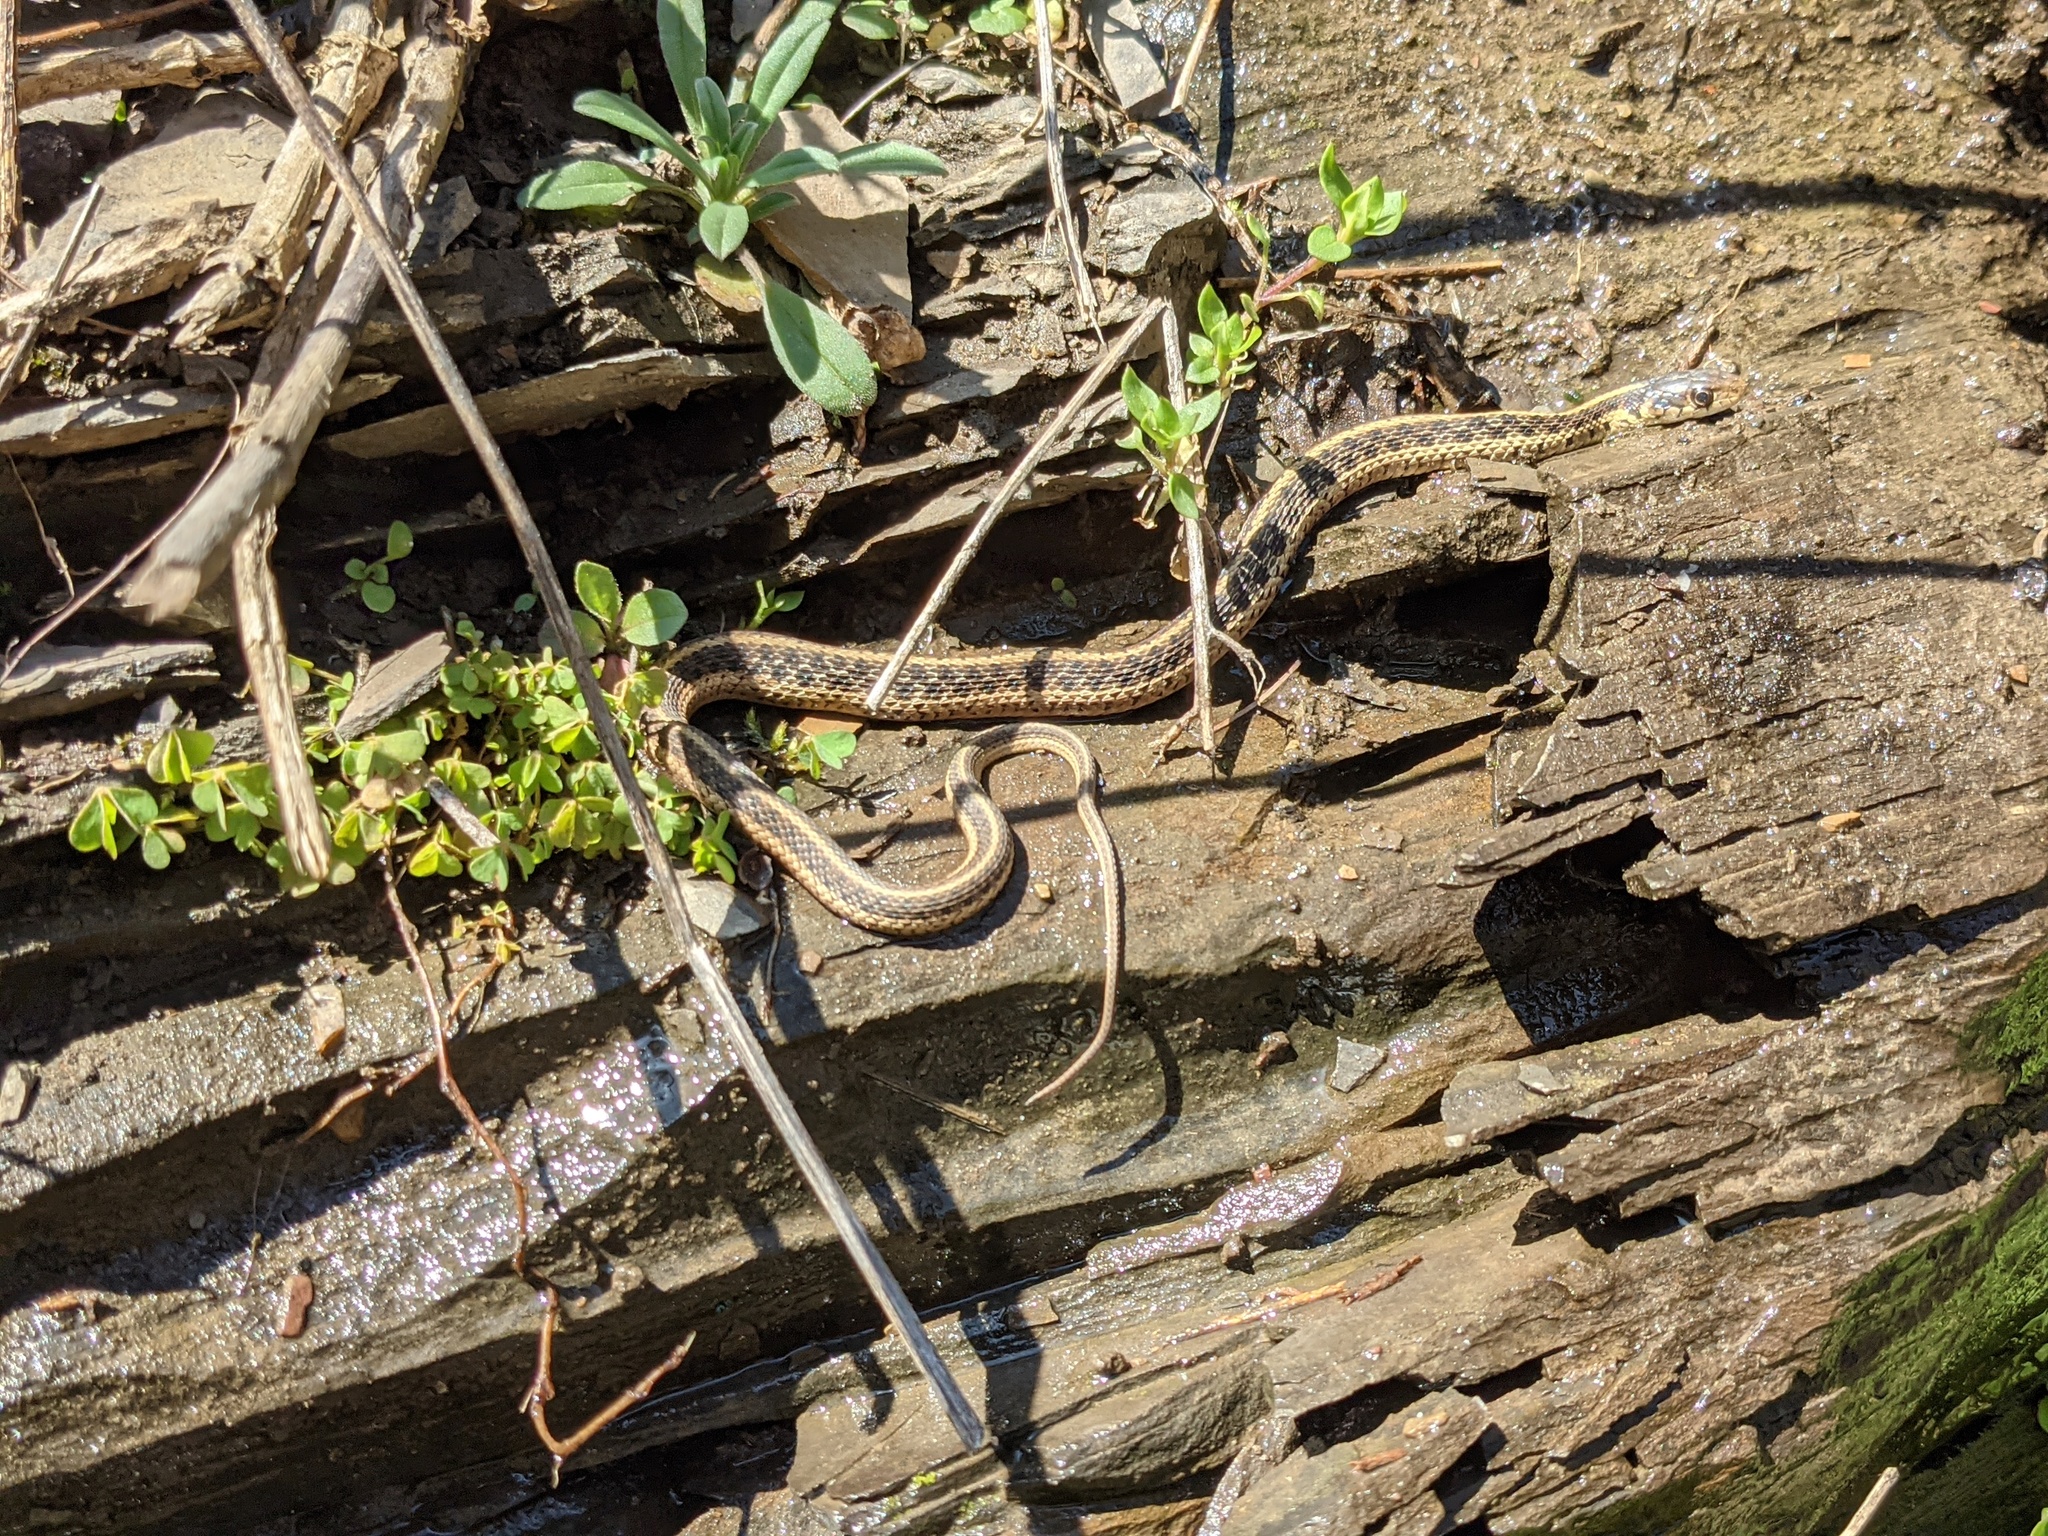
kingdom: Animalia
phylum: Chordata
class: Squamata
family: Colubridae
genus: Thamnophis
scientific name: Thamnophis sirtalis
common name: Common garter snake
